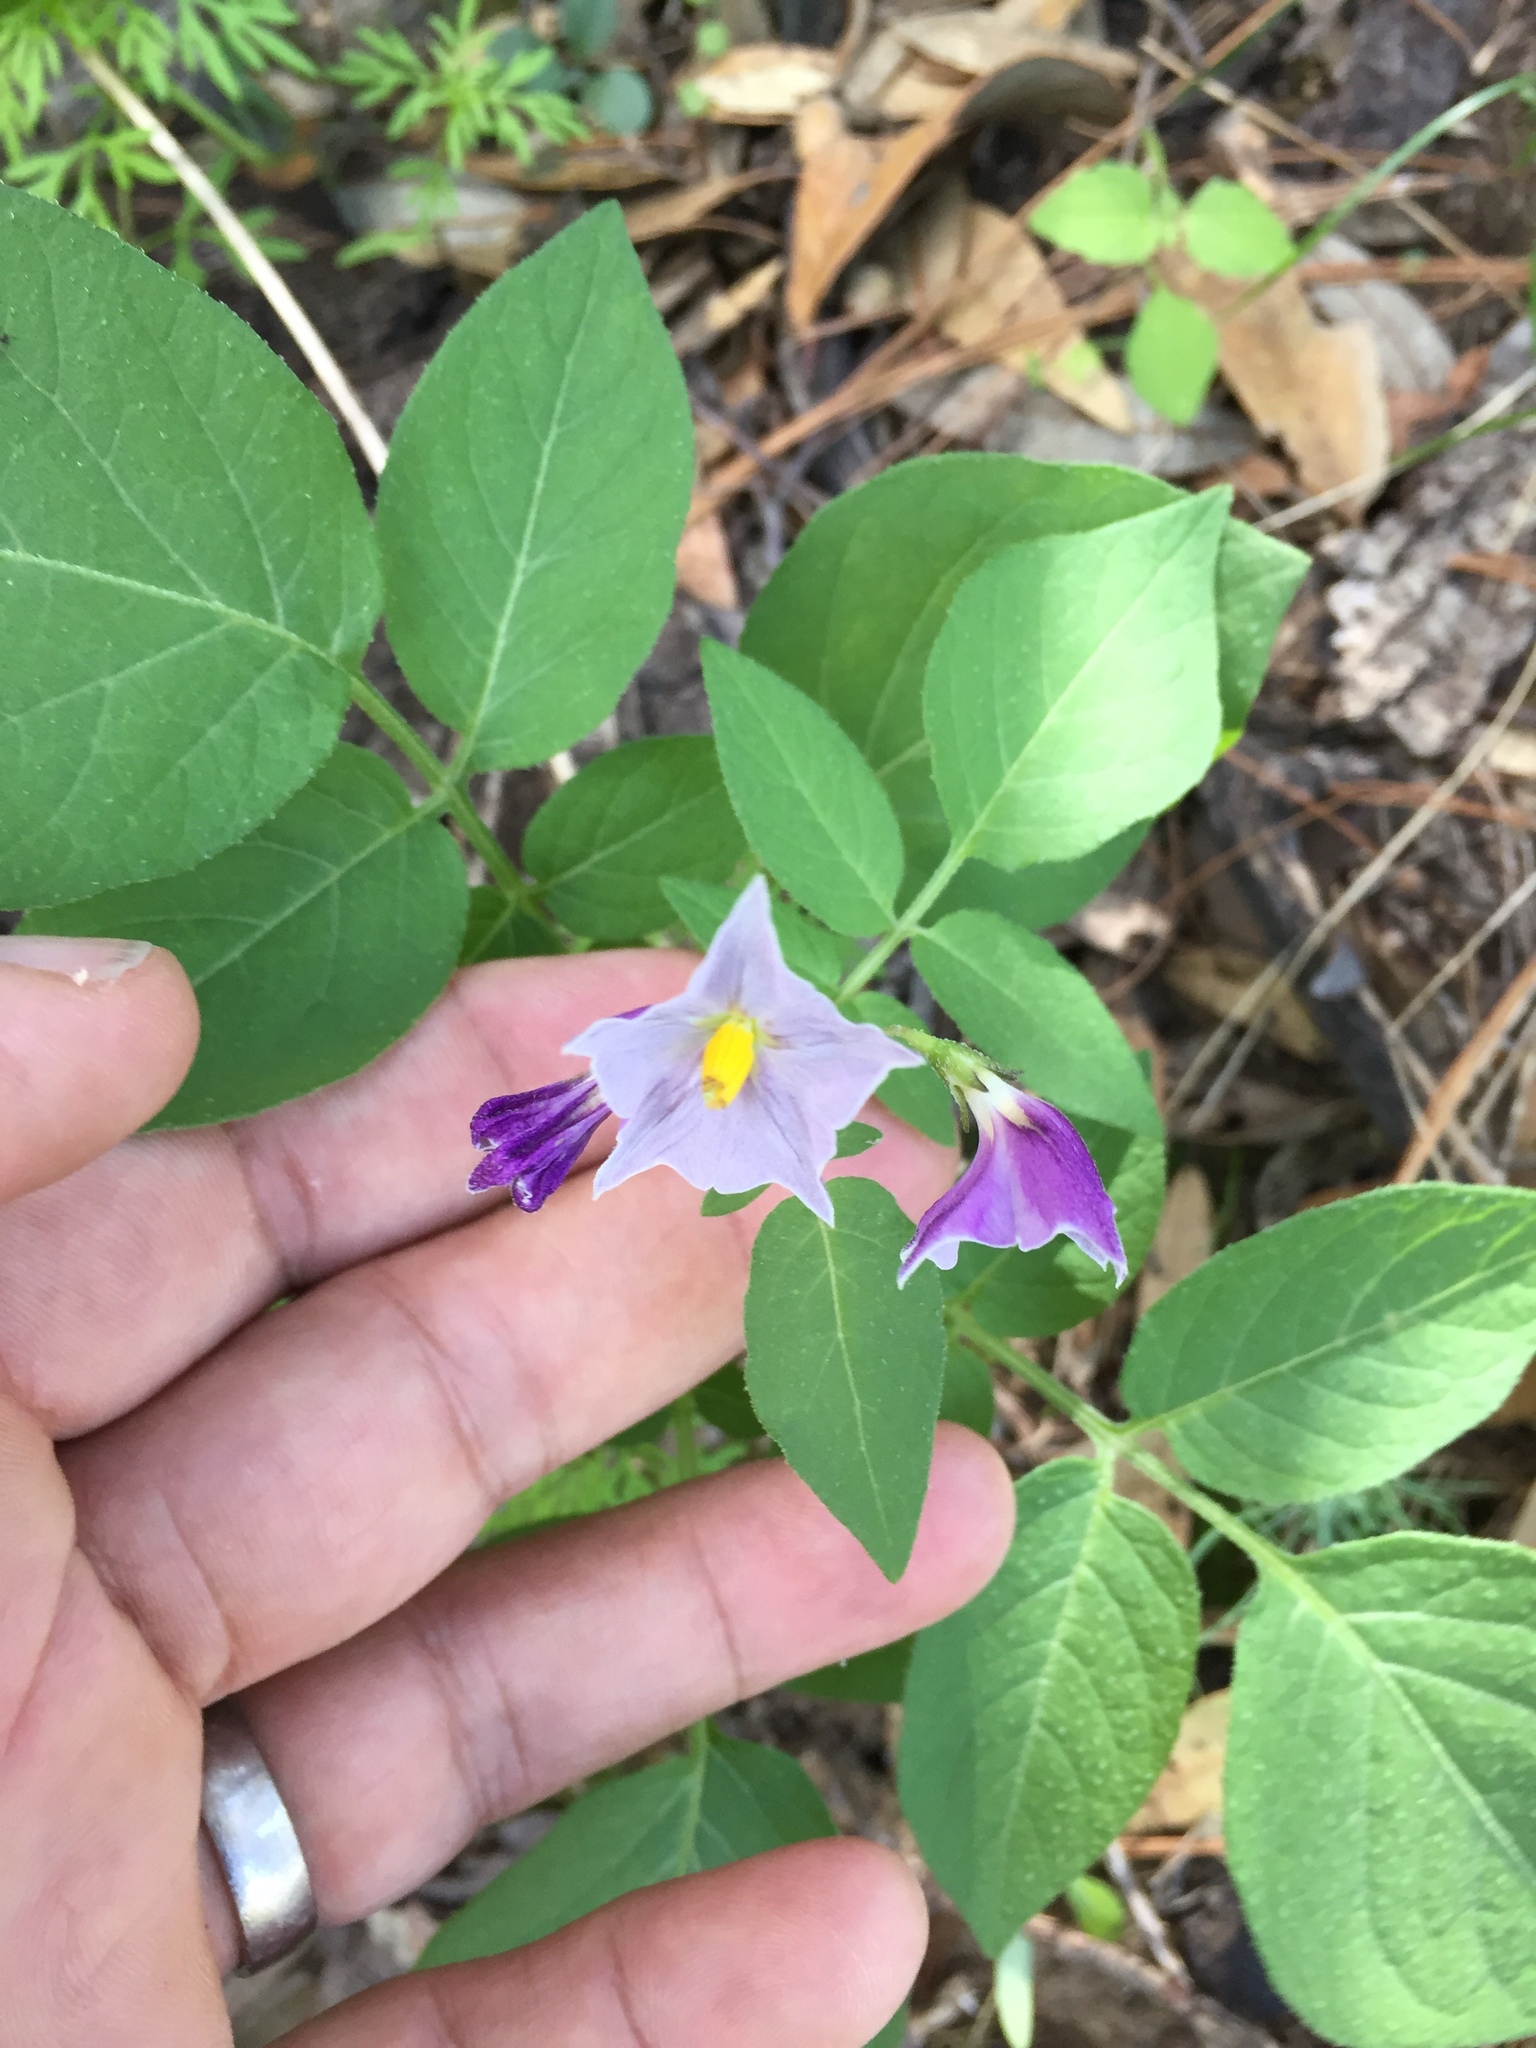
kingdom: Plantae
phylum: Tracheophyta
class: Magnoliopsida
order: Solanales
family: Solanaceae
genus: Solanum
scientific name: Solanum stoloniferum
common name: Fendler's nighshade
